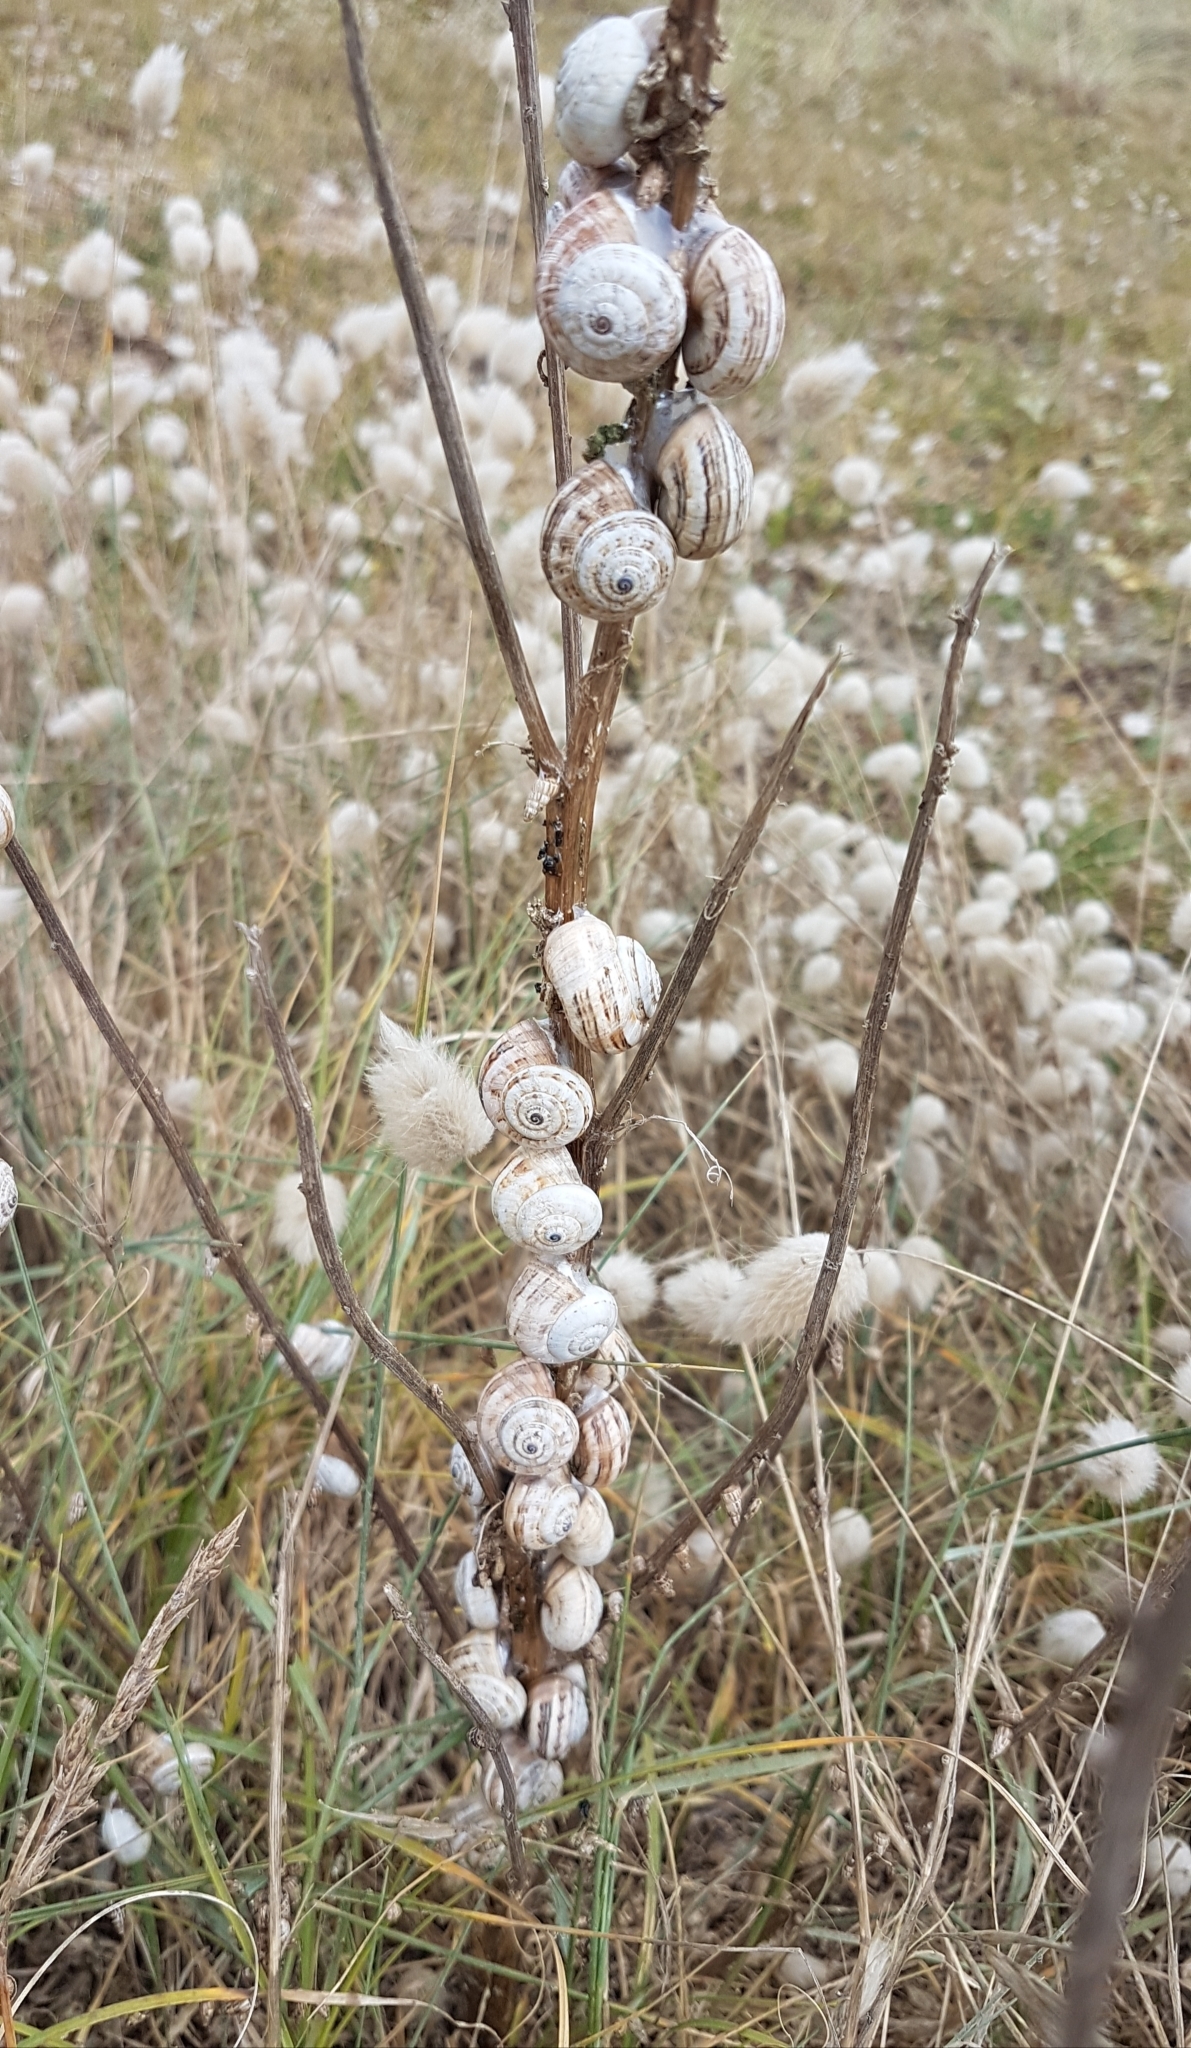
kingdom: Animalia
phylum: Mollusca
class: Gastropoda
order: Stylommatophora
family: Helicidae
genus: Theba
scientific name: Theba pisana
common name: White snail
